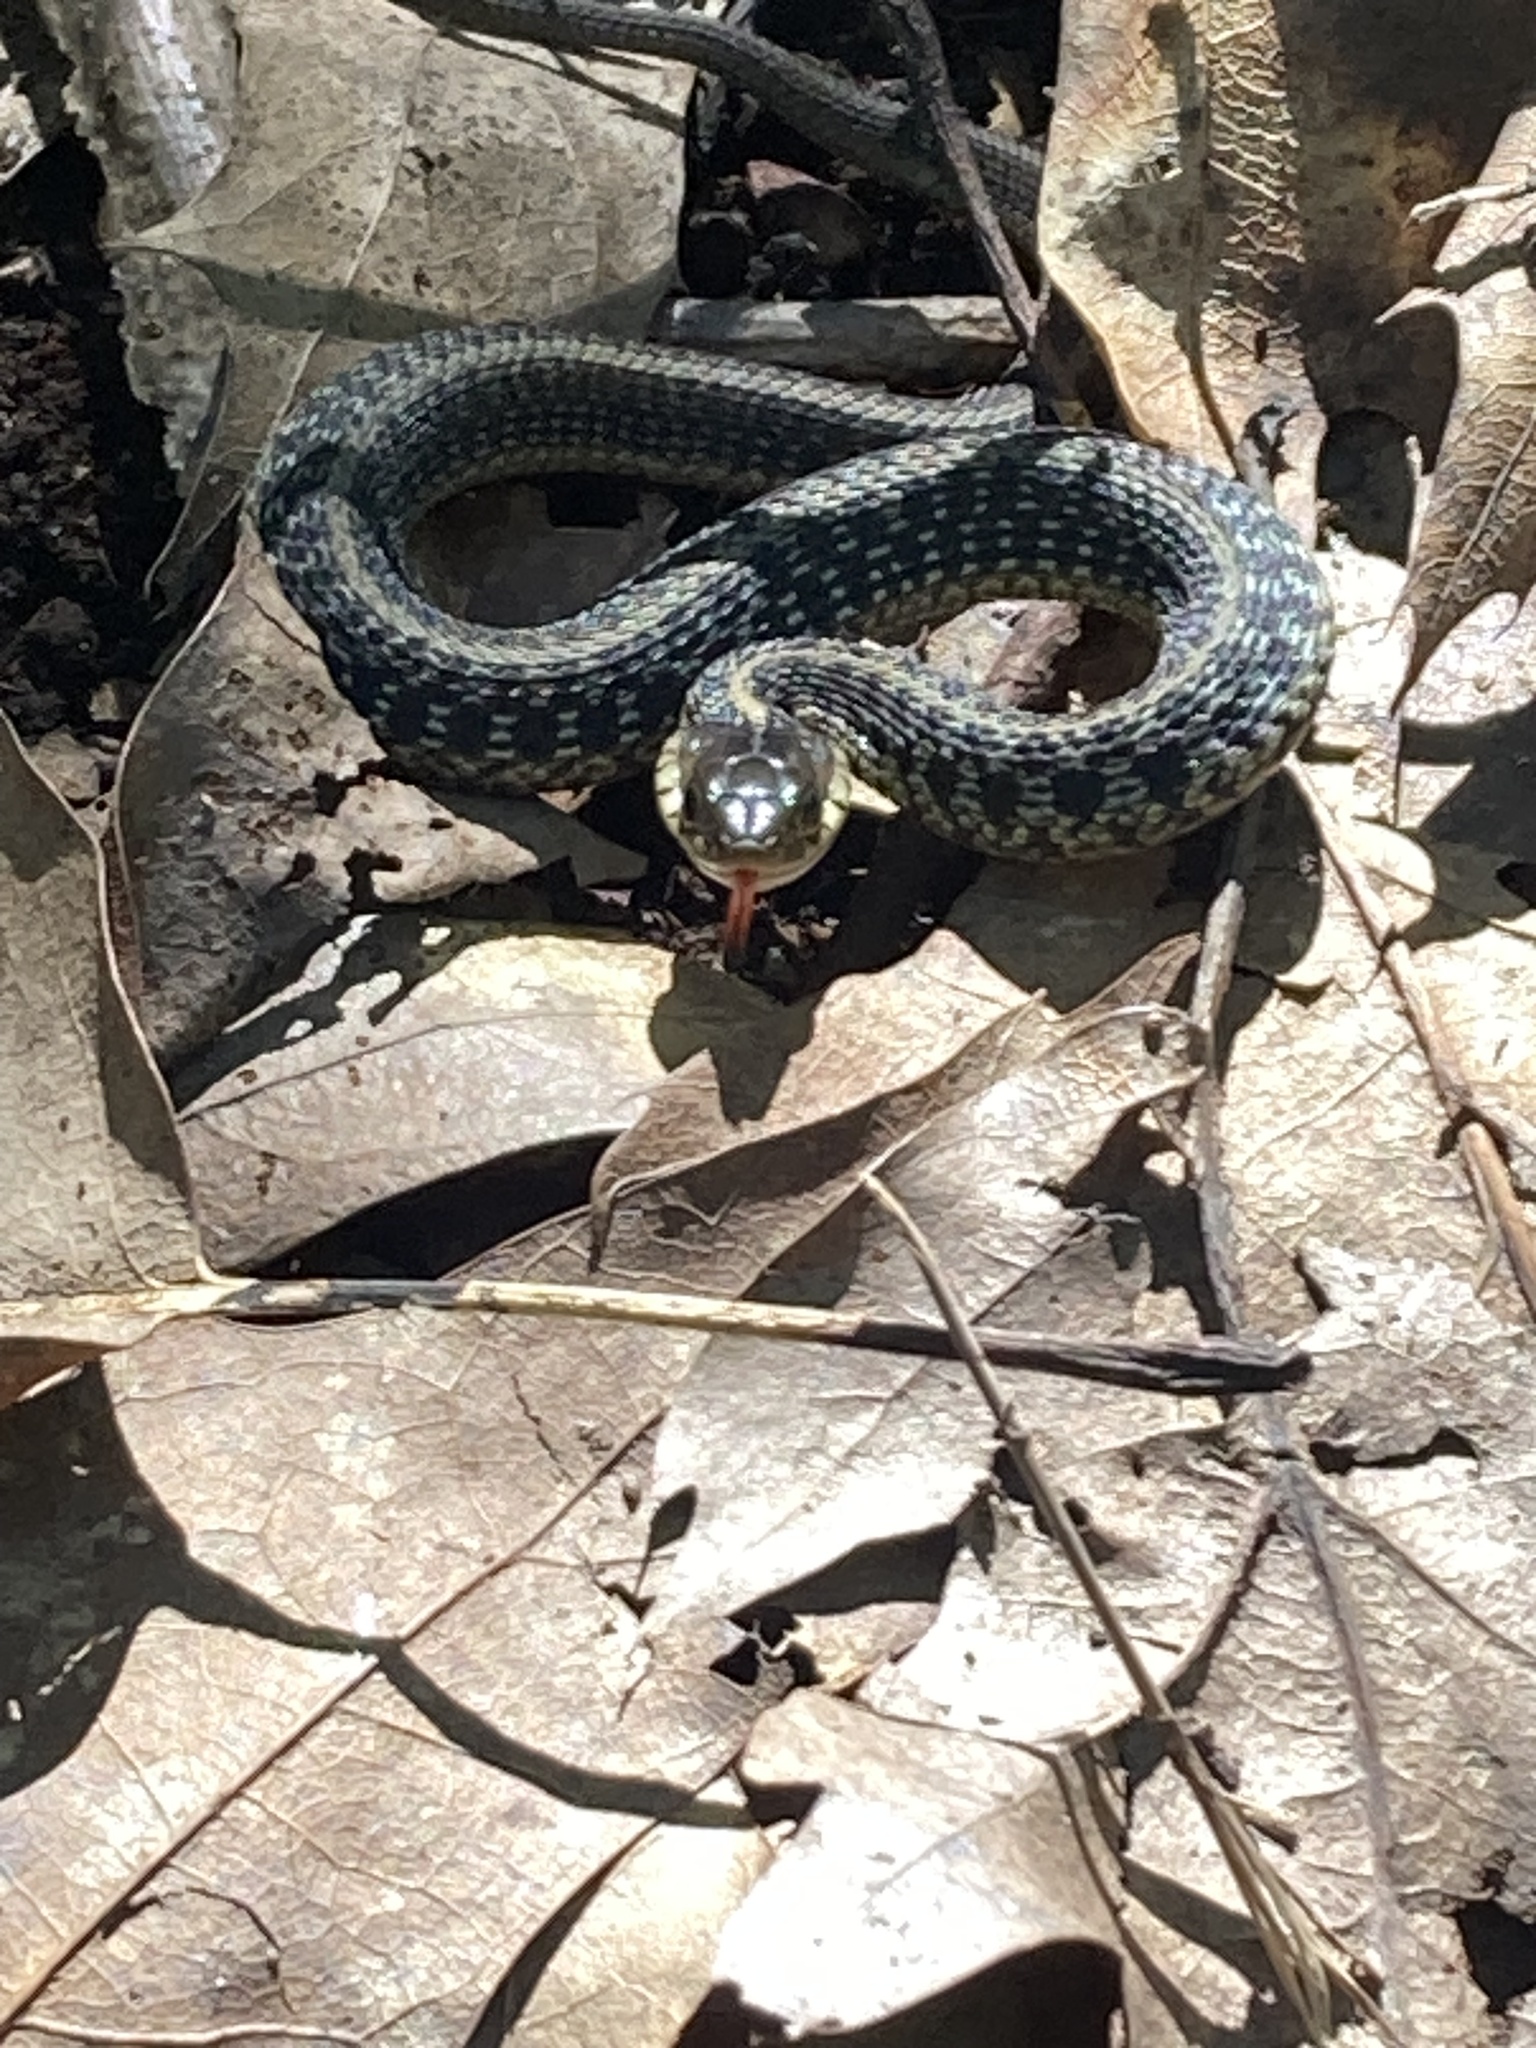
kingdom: Animalia
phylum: Chordata
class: Squamata
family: Colubridae
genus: Thamnophis
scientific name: Thamnophis sirtalis
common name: Common garter snake
